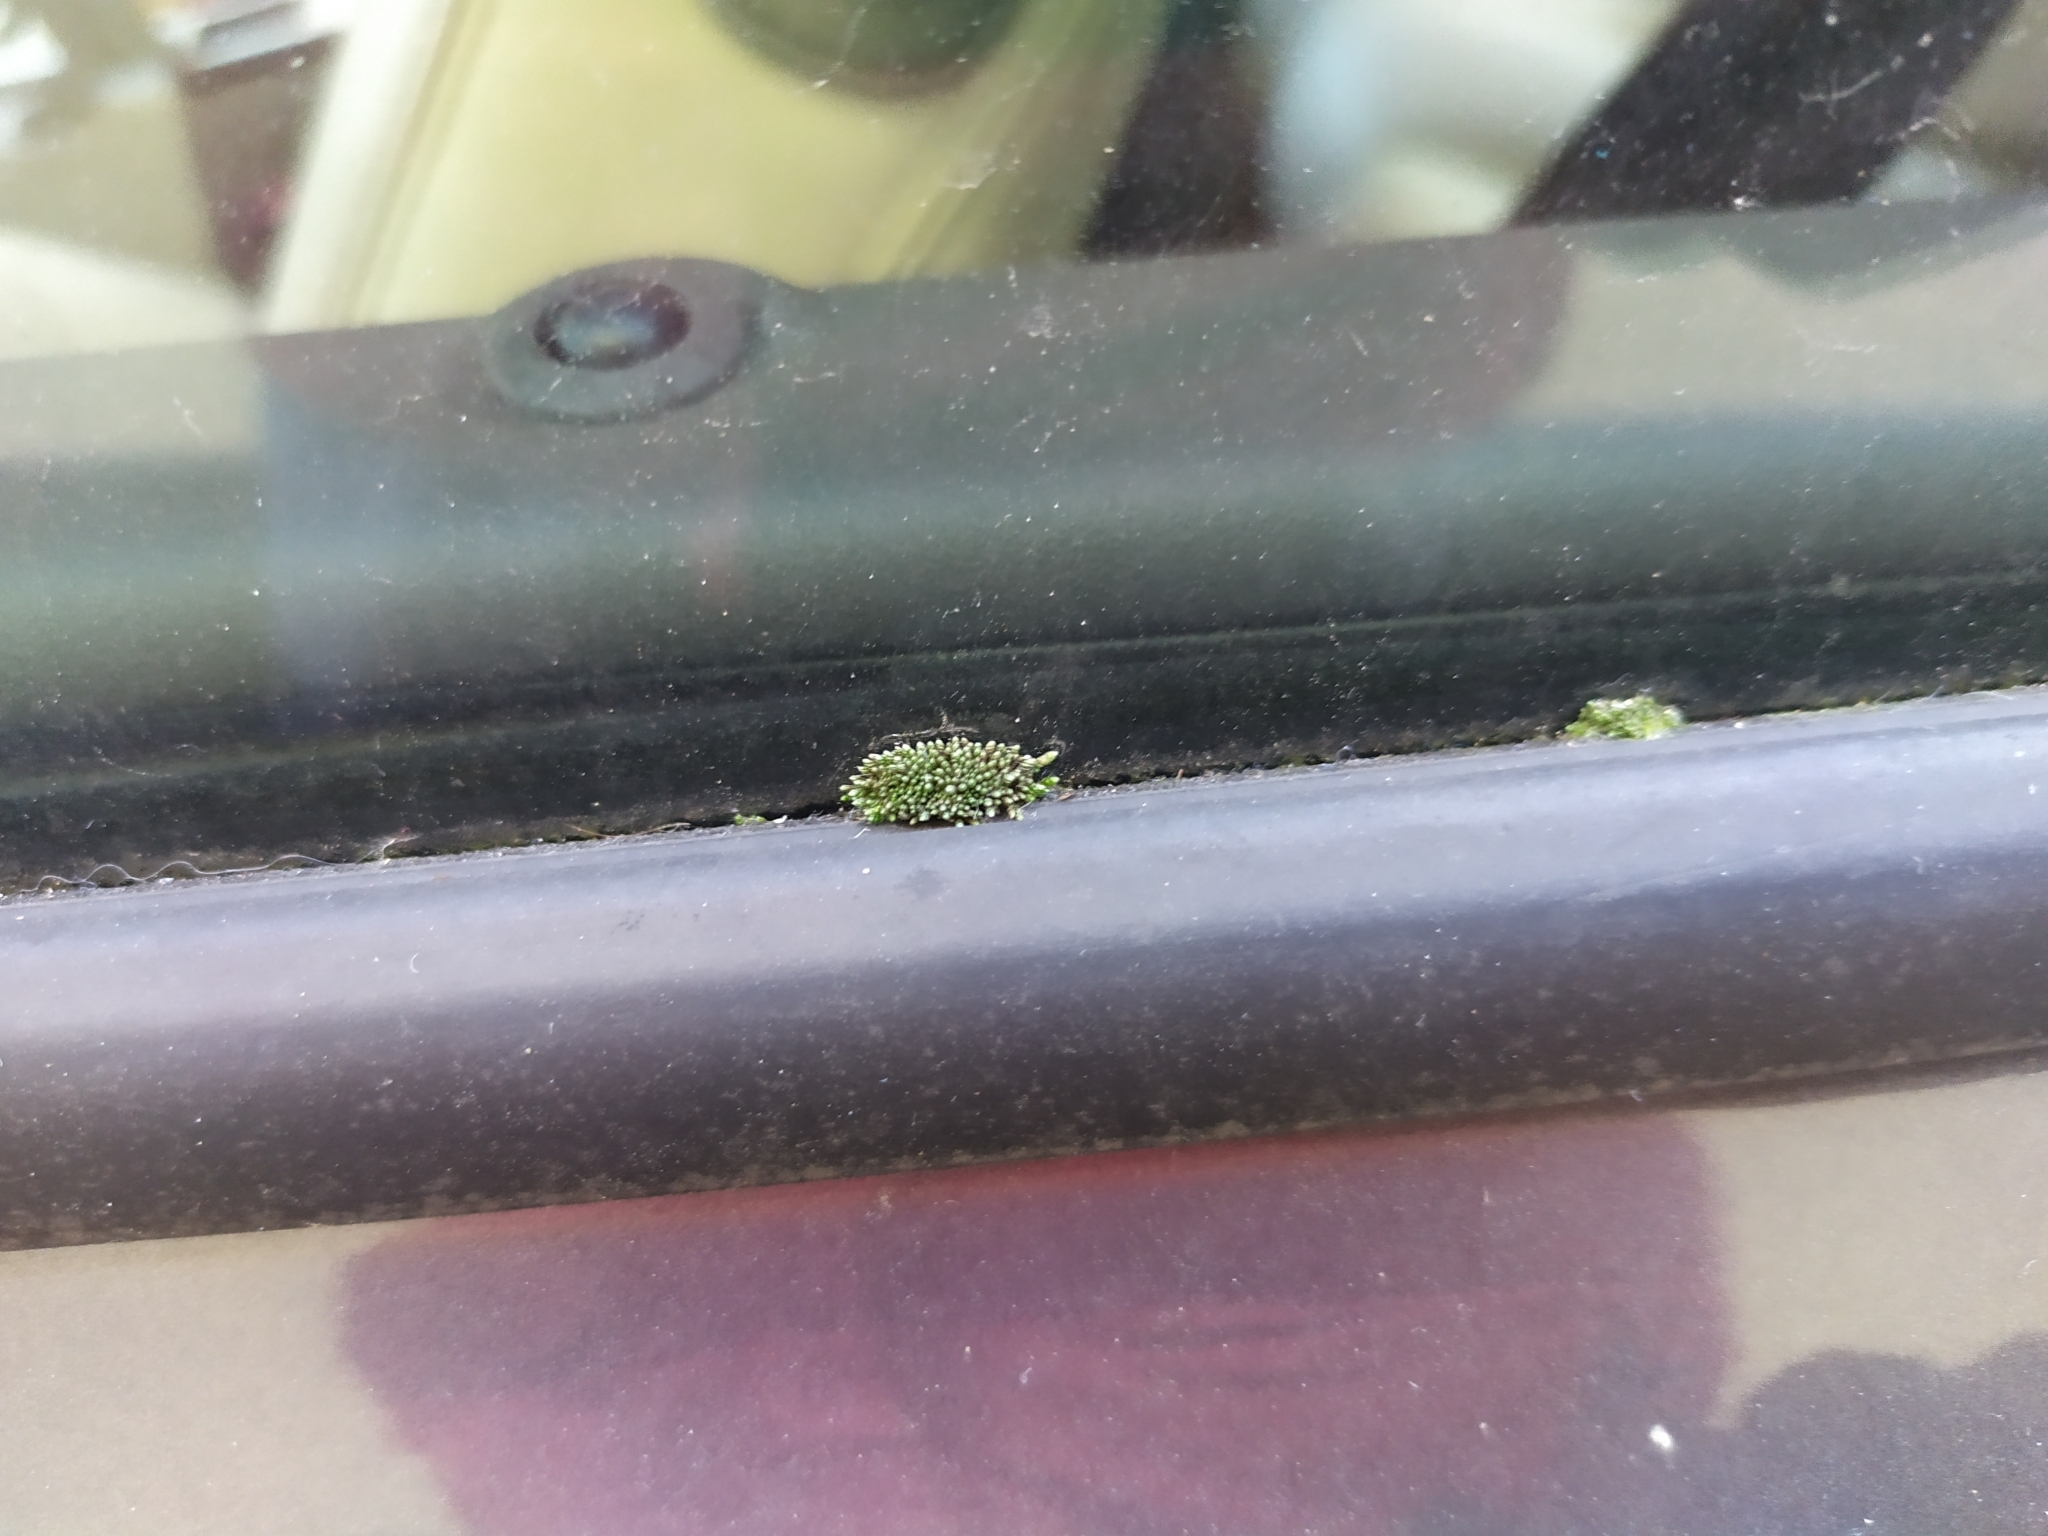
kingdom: Plantae
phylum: Bryophyta
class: Bryopsida
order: Bryales
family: Bryaceae
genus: Bryum
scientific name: Bryum argenteum
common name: Silver-moss
